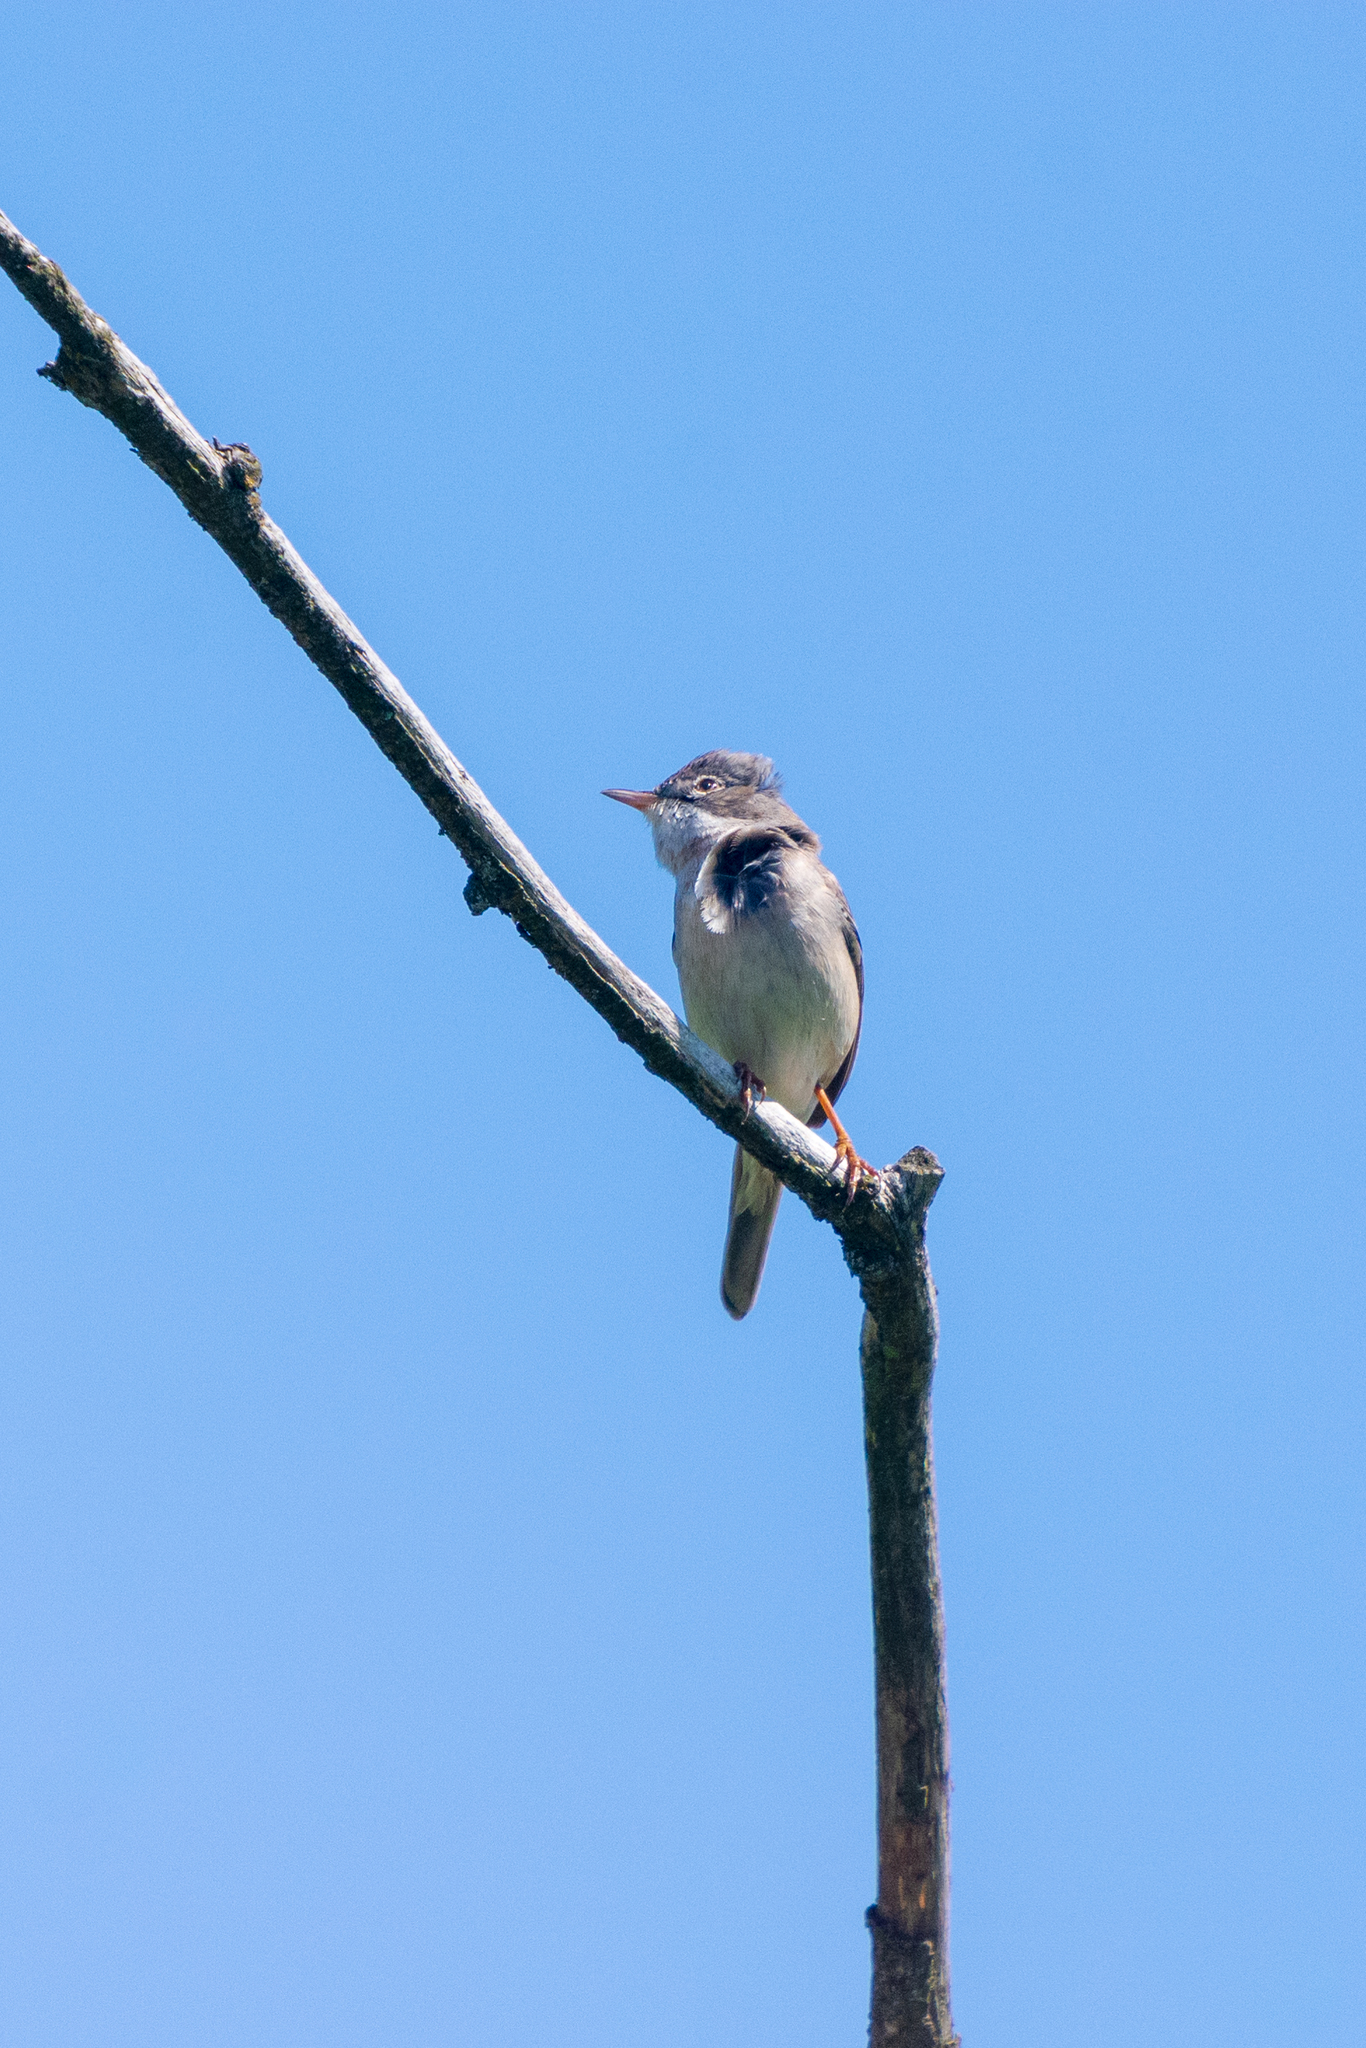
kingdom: Animalia
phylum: Chordata
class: Aves
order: Passeriformes
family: Sylviidae
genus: Sylvia
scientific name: Sylvia communis
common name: Common whitethroat
